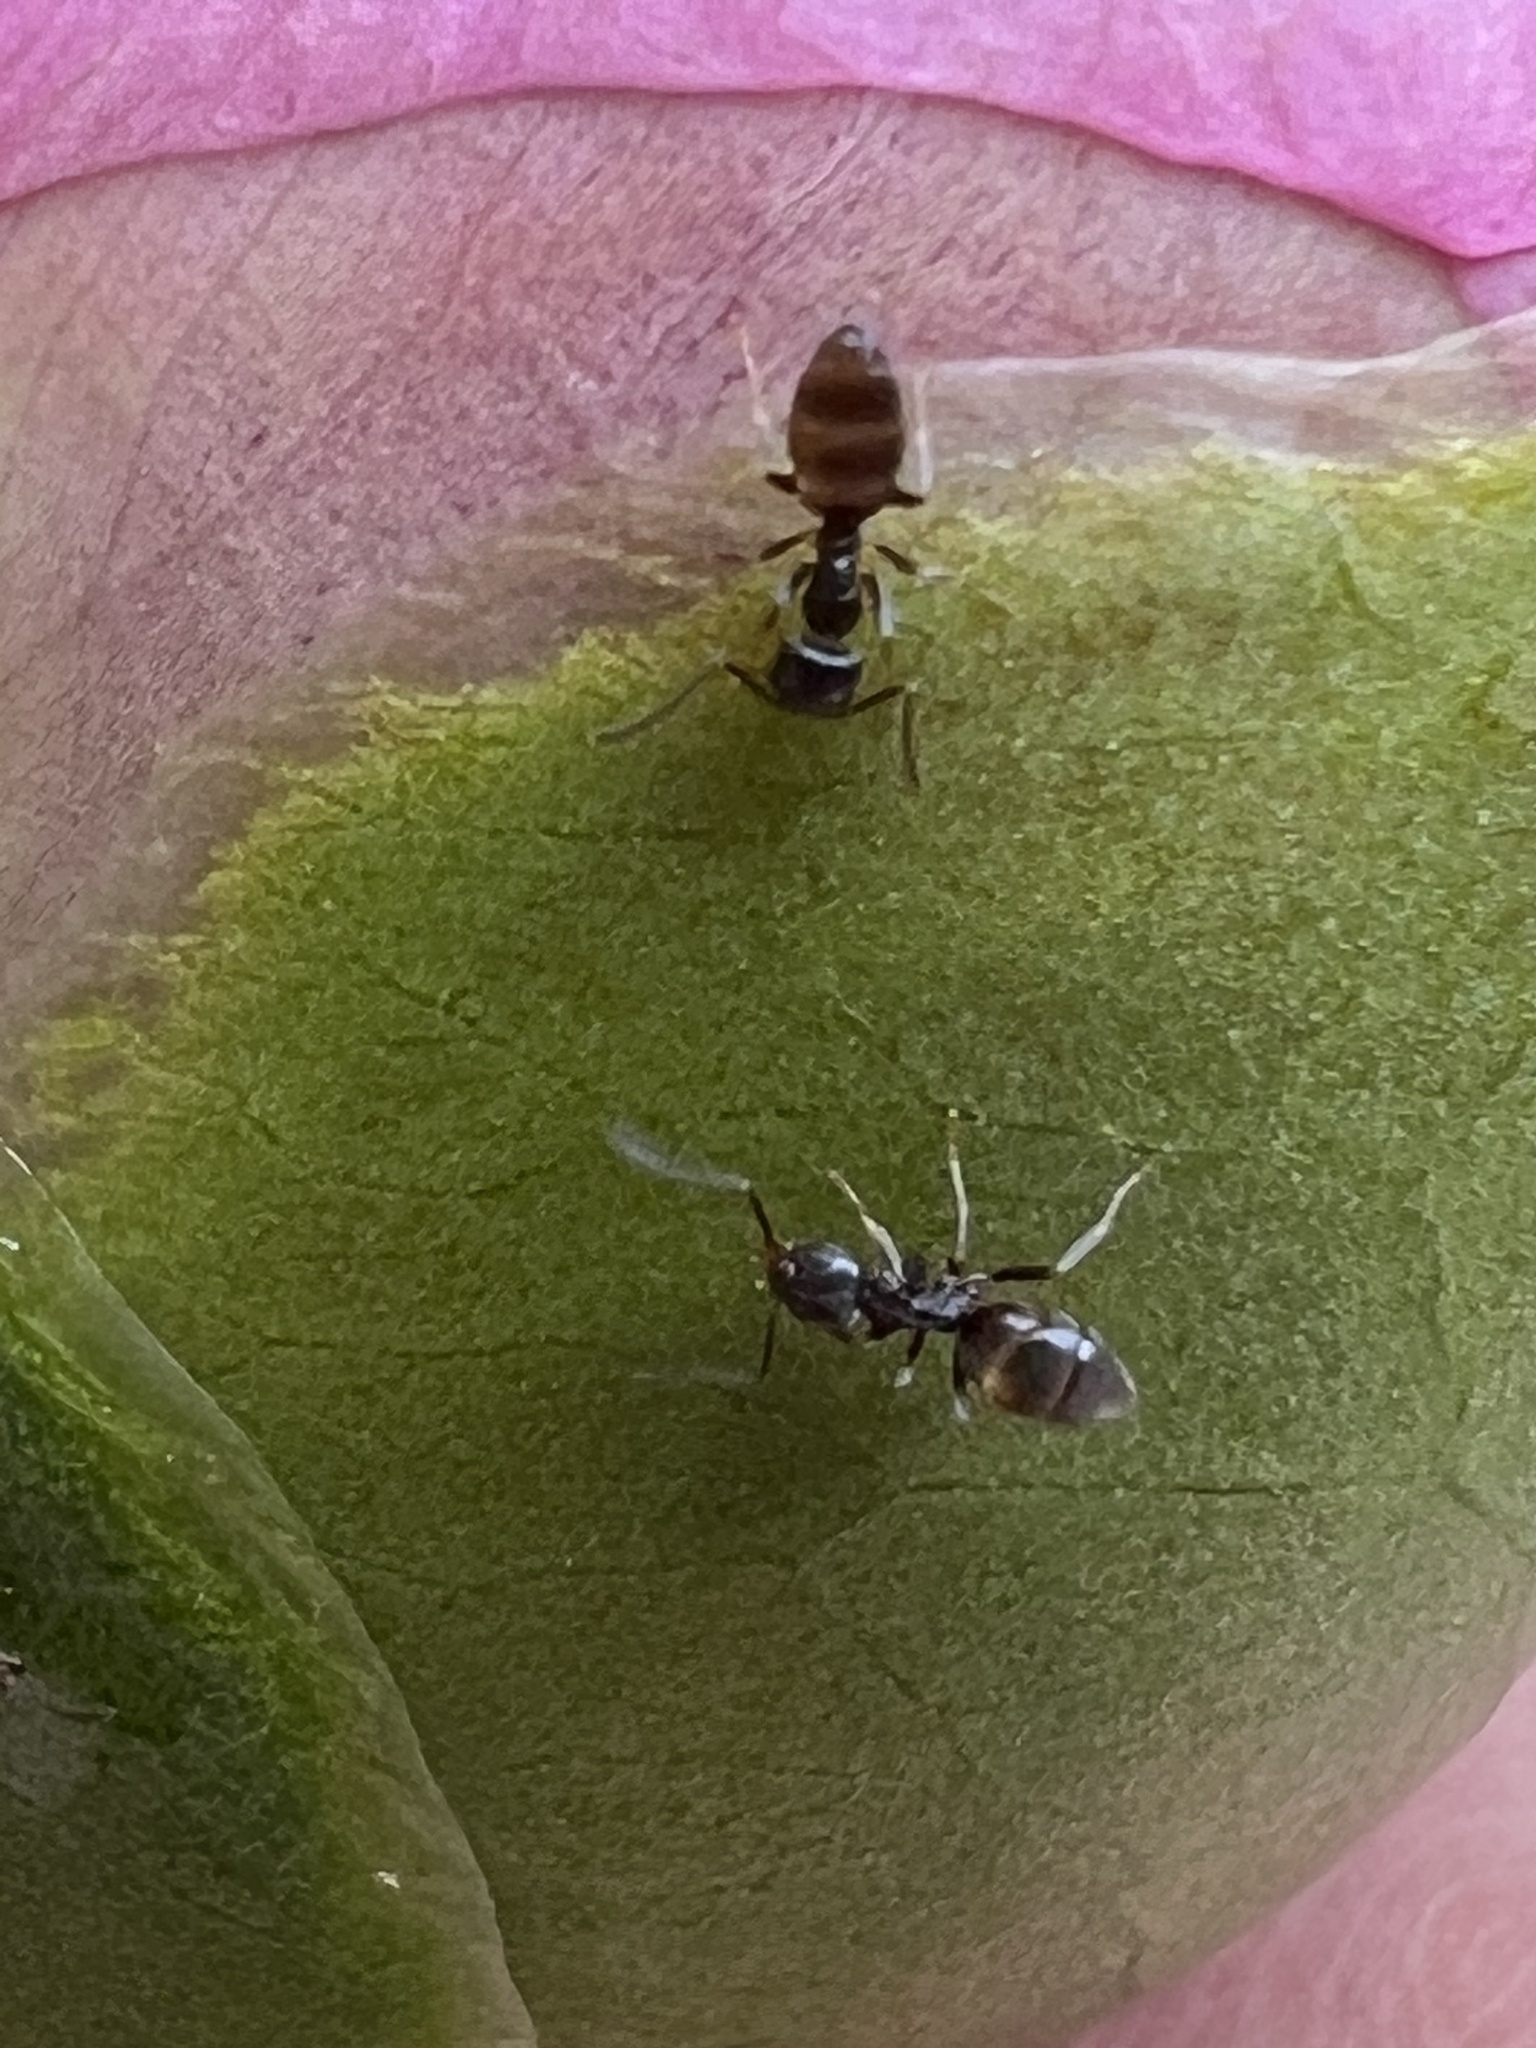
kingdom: Animalia
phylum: Arthropoda
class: Insecta
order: Hymenoptera
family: Formicidae
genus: Tapinoma
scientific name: Tapinoma sessile
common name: Odorous house ant
